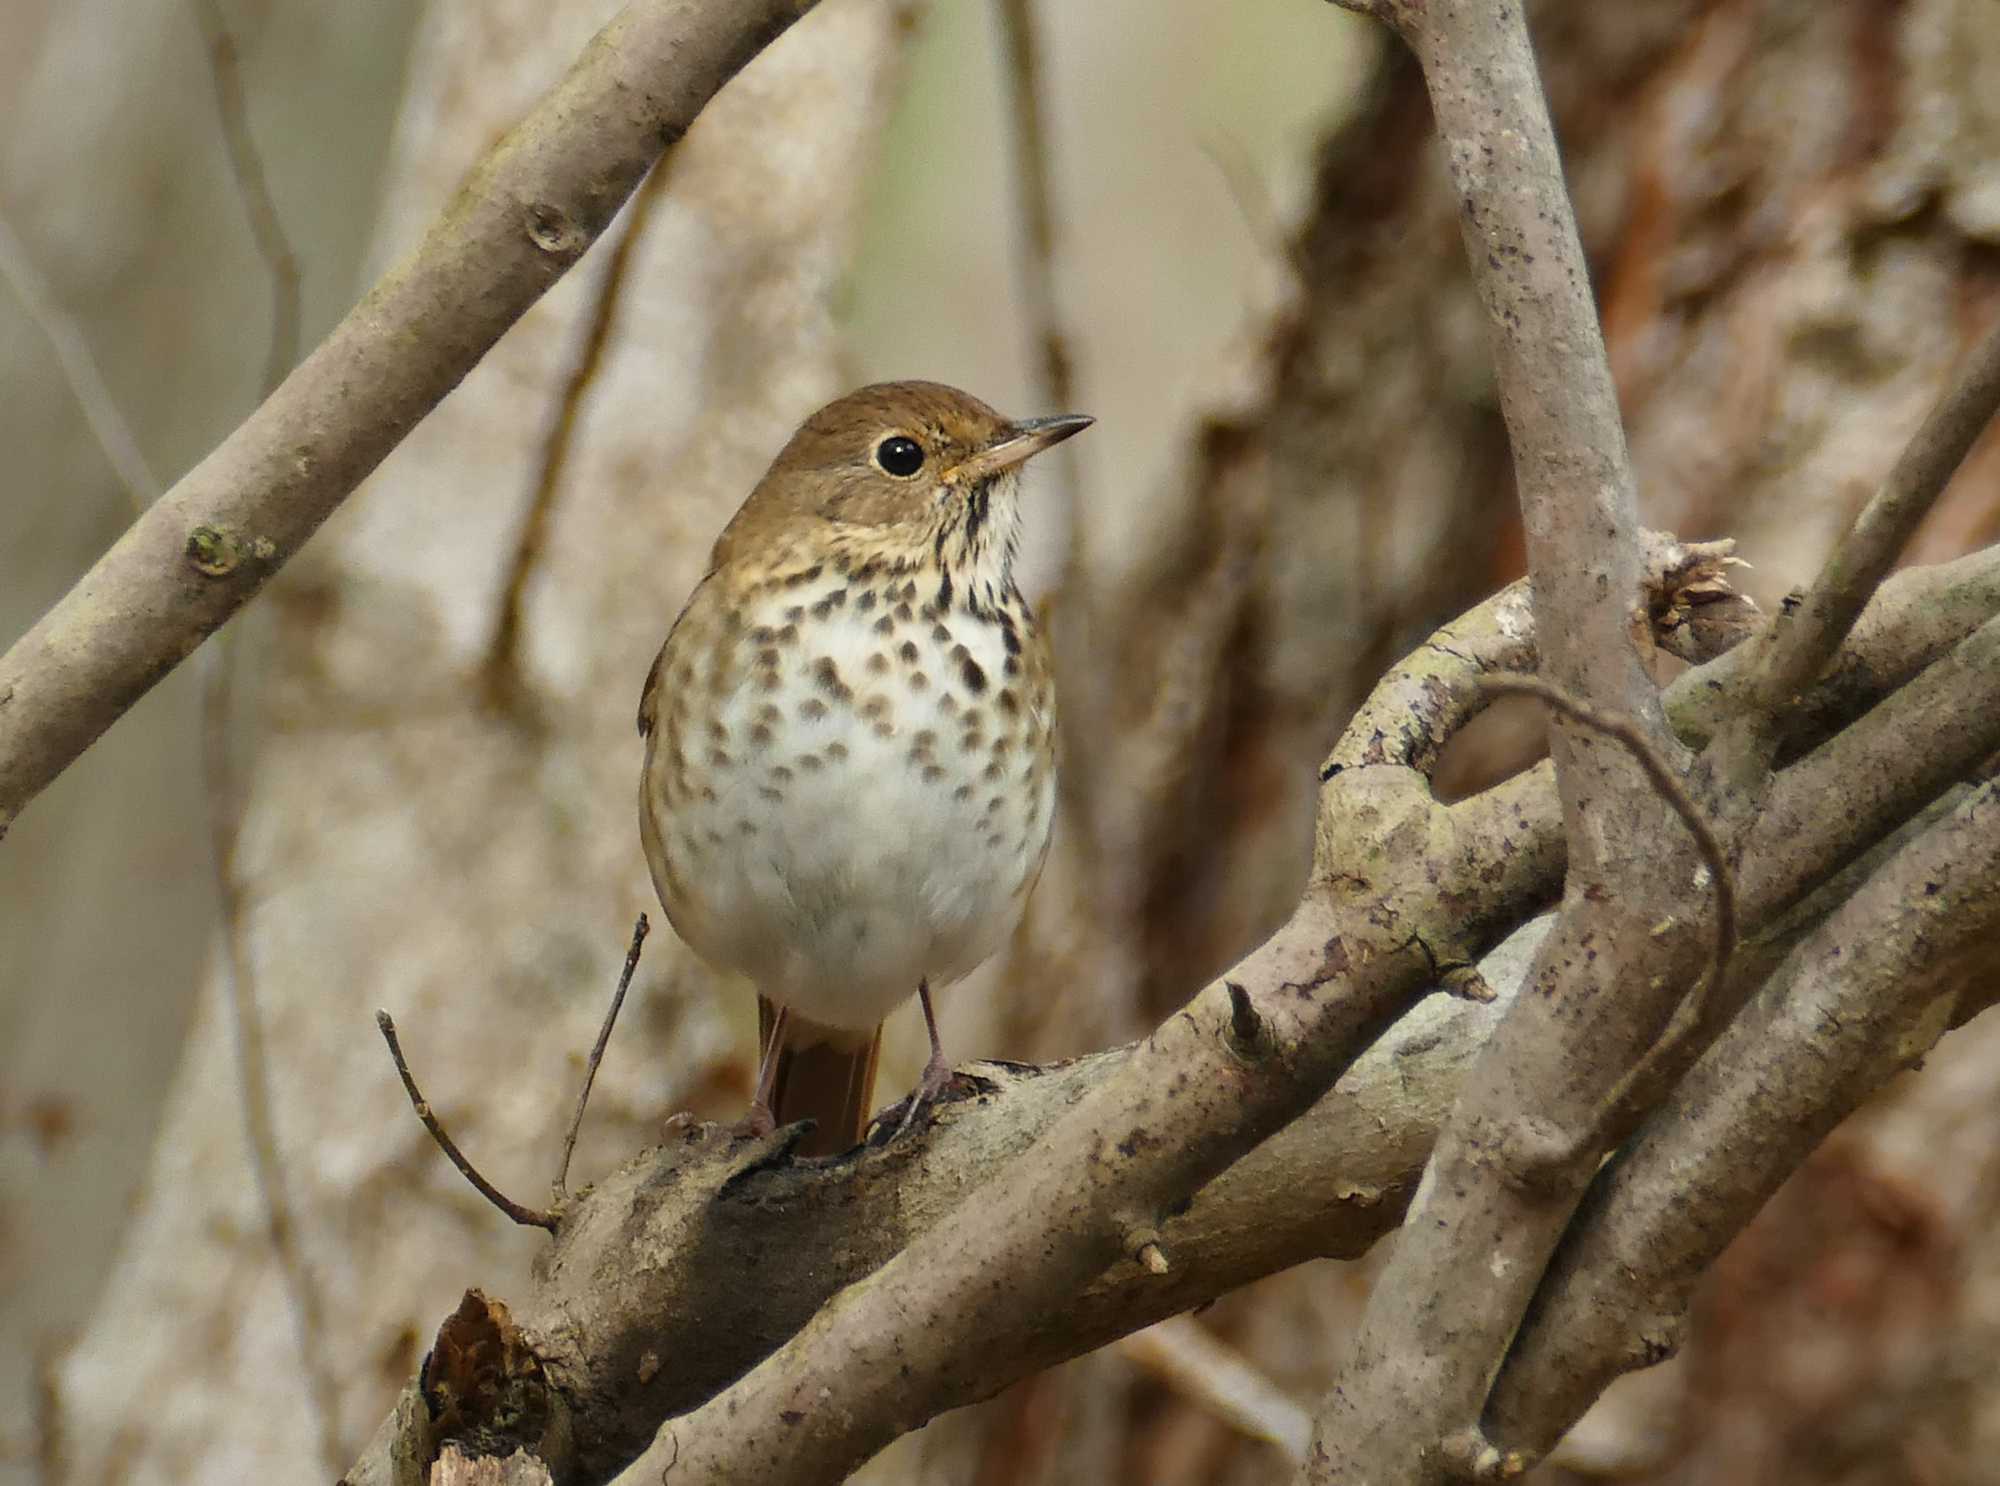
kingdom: Animalia
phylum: Chordata
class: Aves
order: Passeriformes
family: Turdidae
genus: Catharus
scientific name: Catharus guttatus
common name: Hermit thrush
